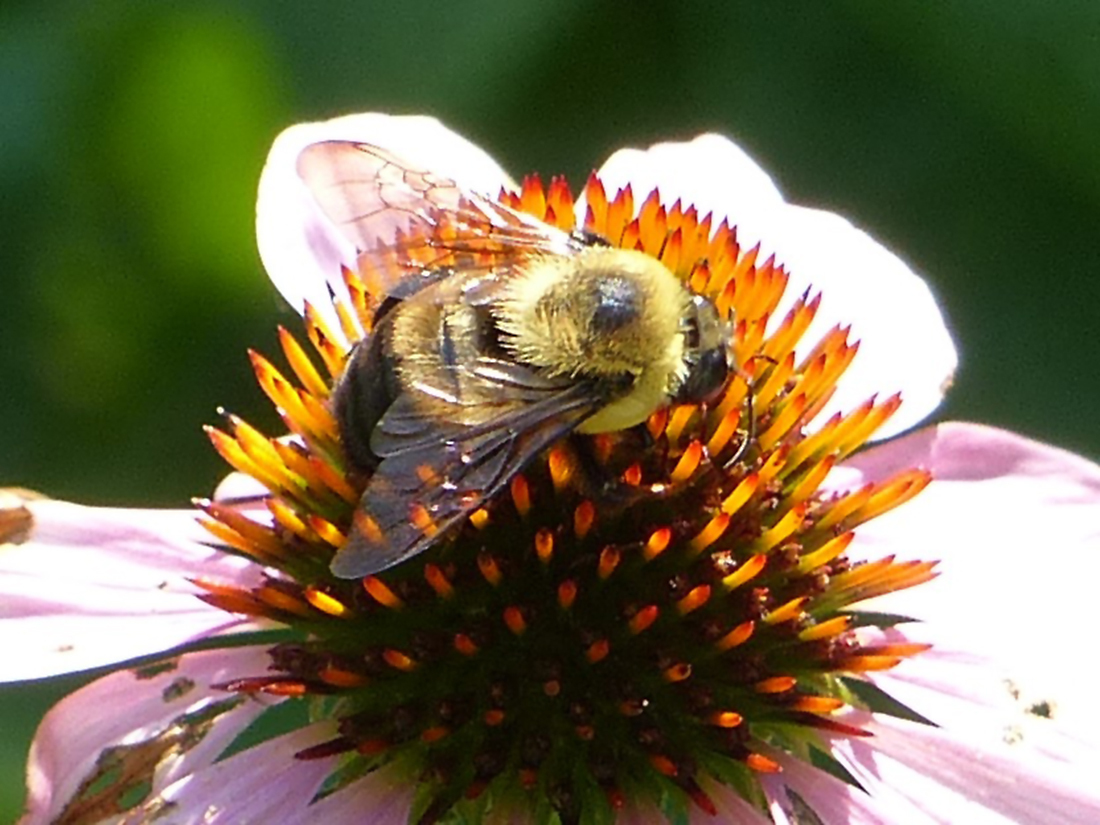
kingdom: Animalia
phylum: Arthropoda
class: Insecta
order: Hymenoptera
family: Apidae
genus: Bombus
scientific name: Bombus griseocollis
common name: Brown-belted bumble bee
